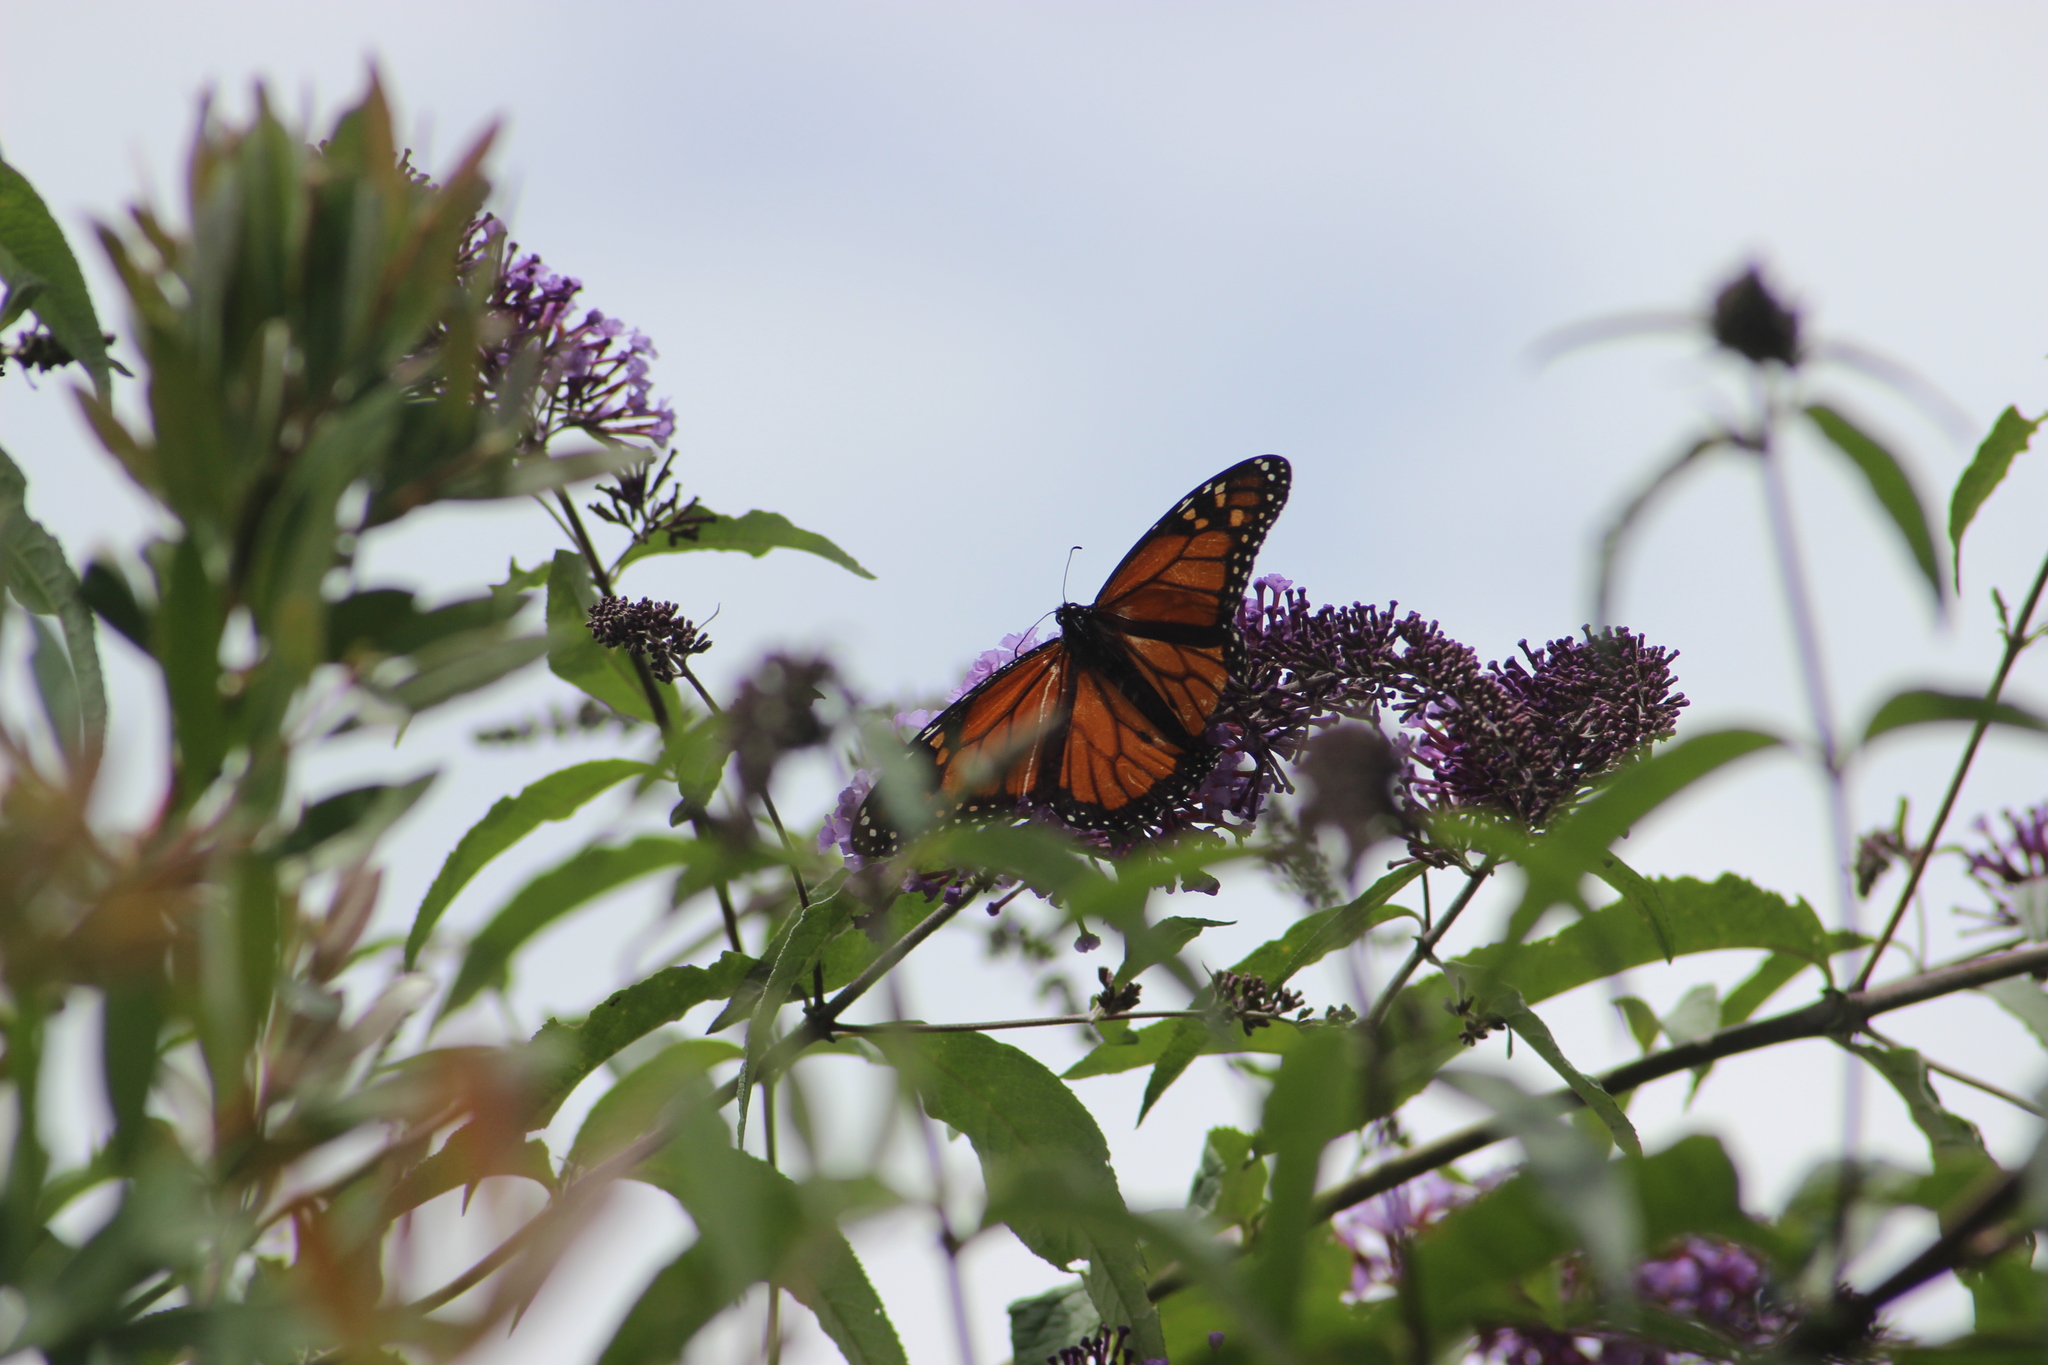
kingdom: Animalia
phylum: Arthropoda
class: Insecta
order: Lepidoptera
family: Nymphalidae
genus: Danaus
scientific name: Danaus plexippus
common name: Monarch
